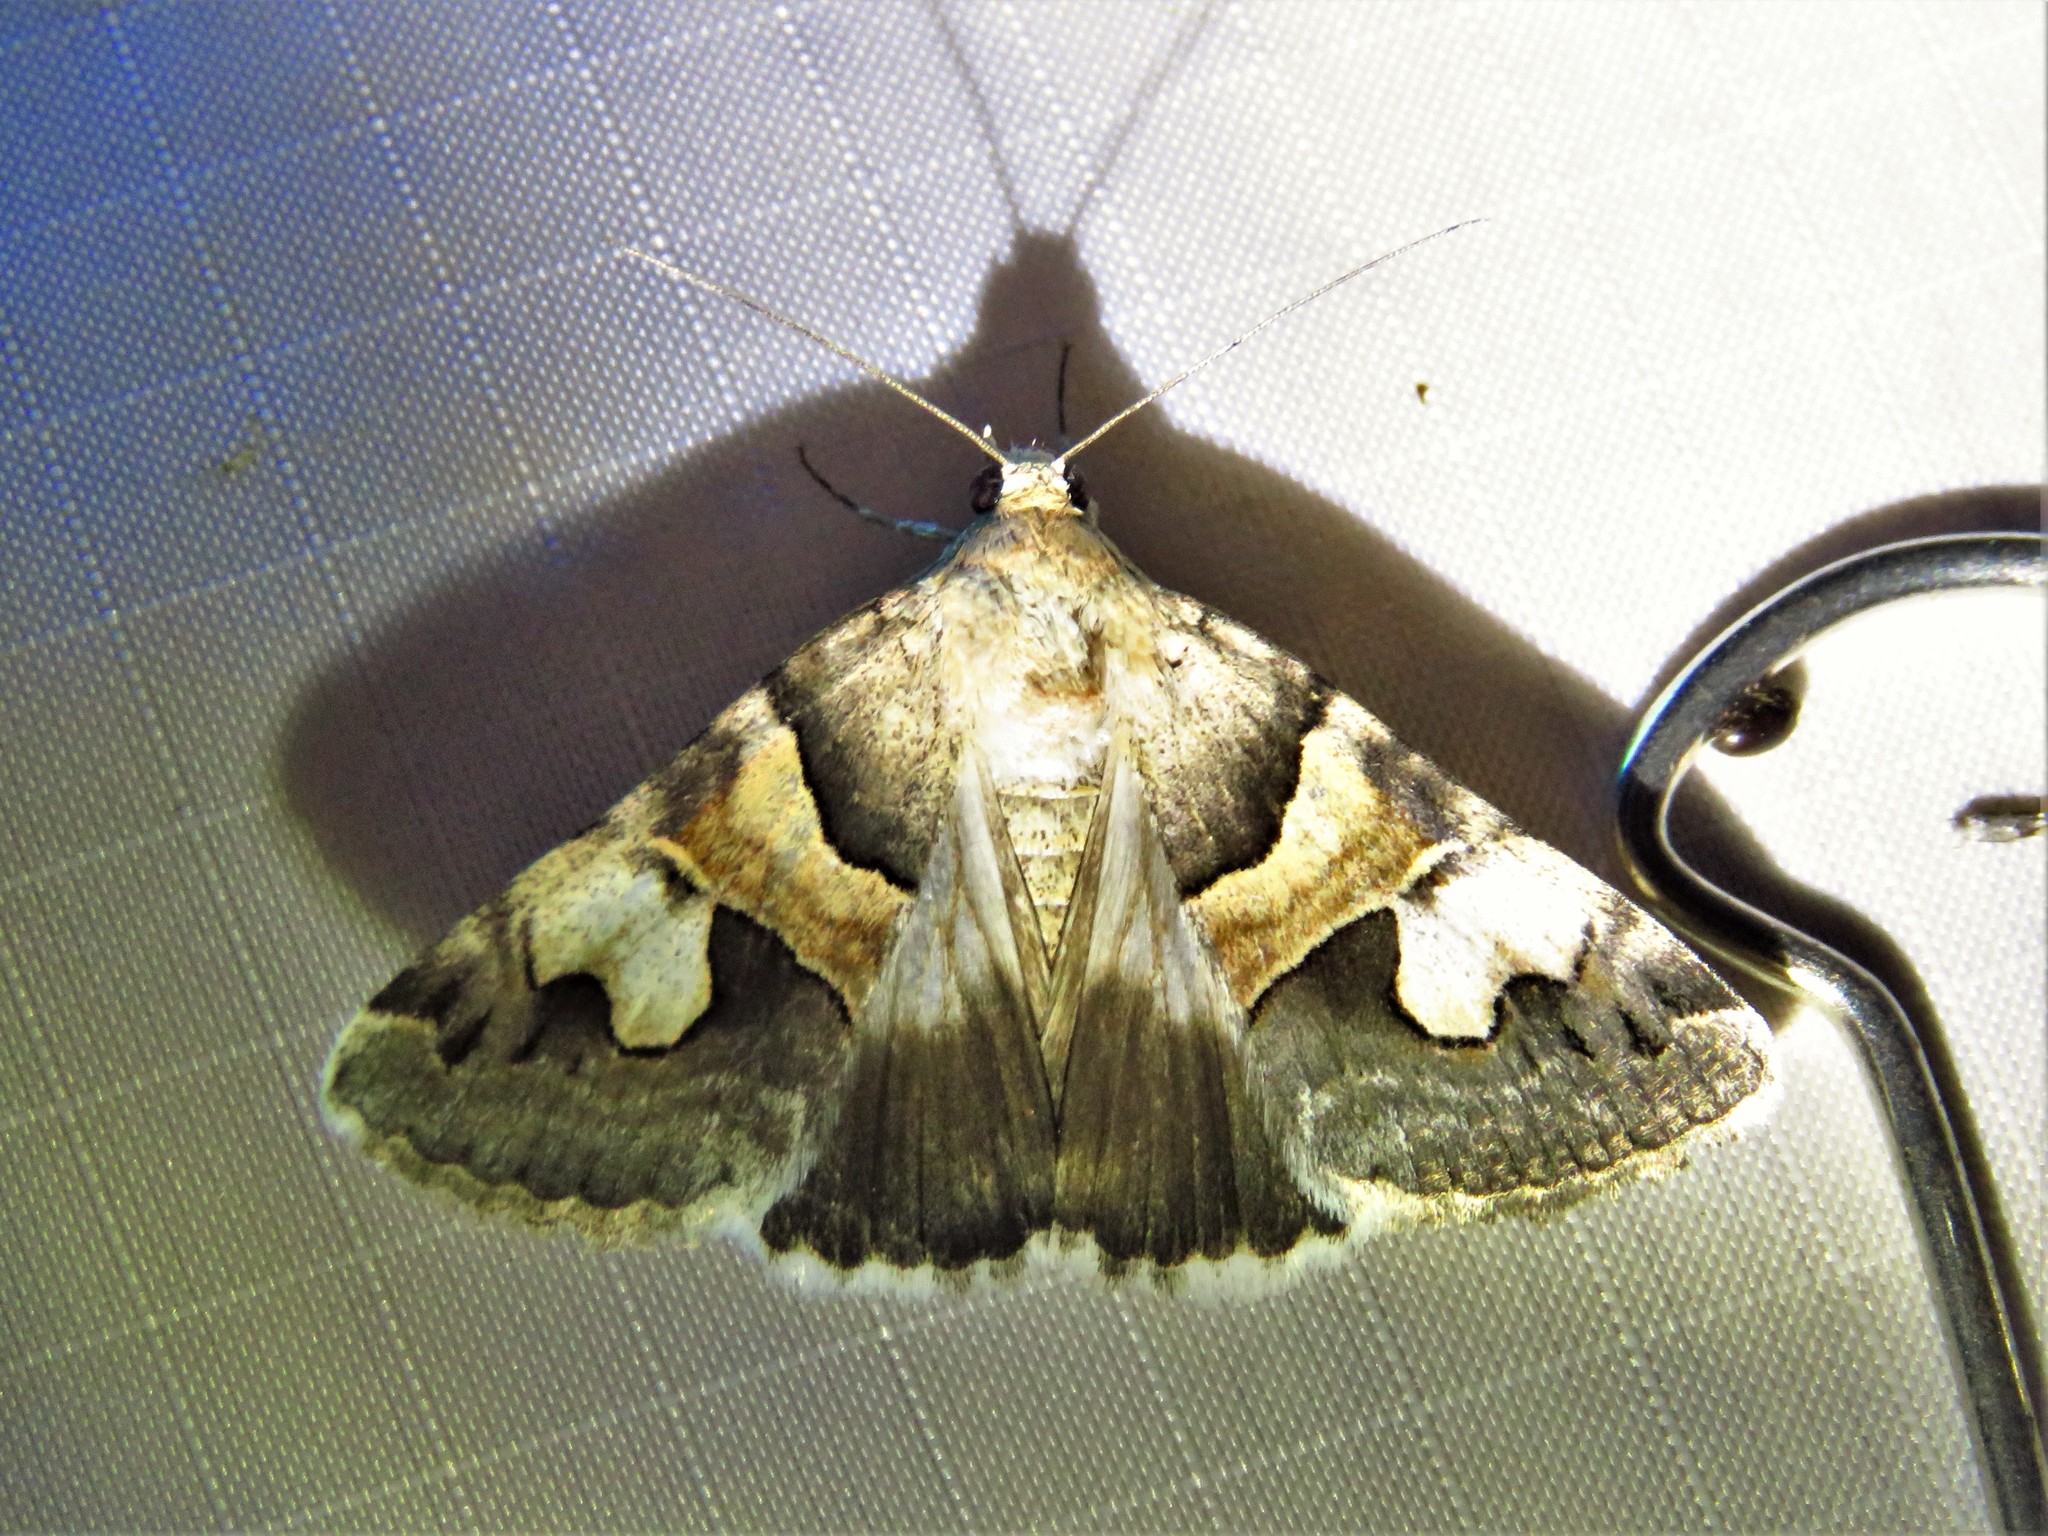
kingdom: Animalia
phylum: Arthropoda
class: Insecta
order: Lepidoptera
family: Erebidae
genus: Drasteria
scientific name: Drasteria pallescens
